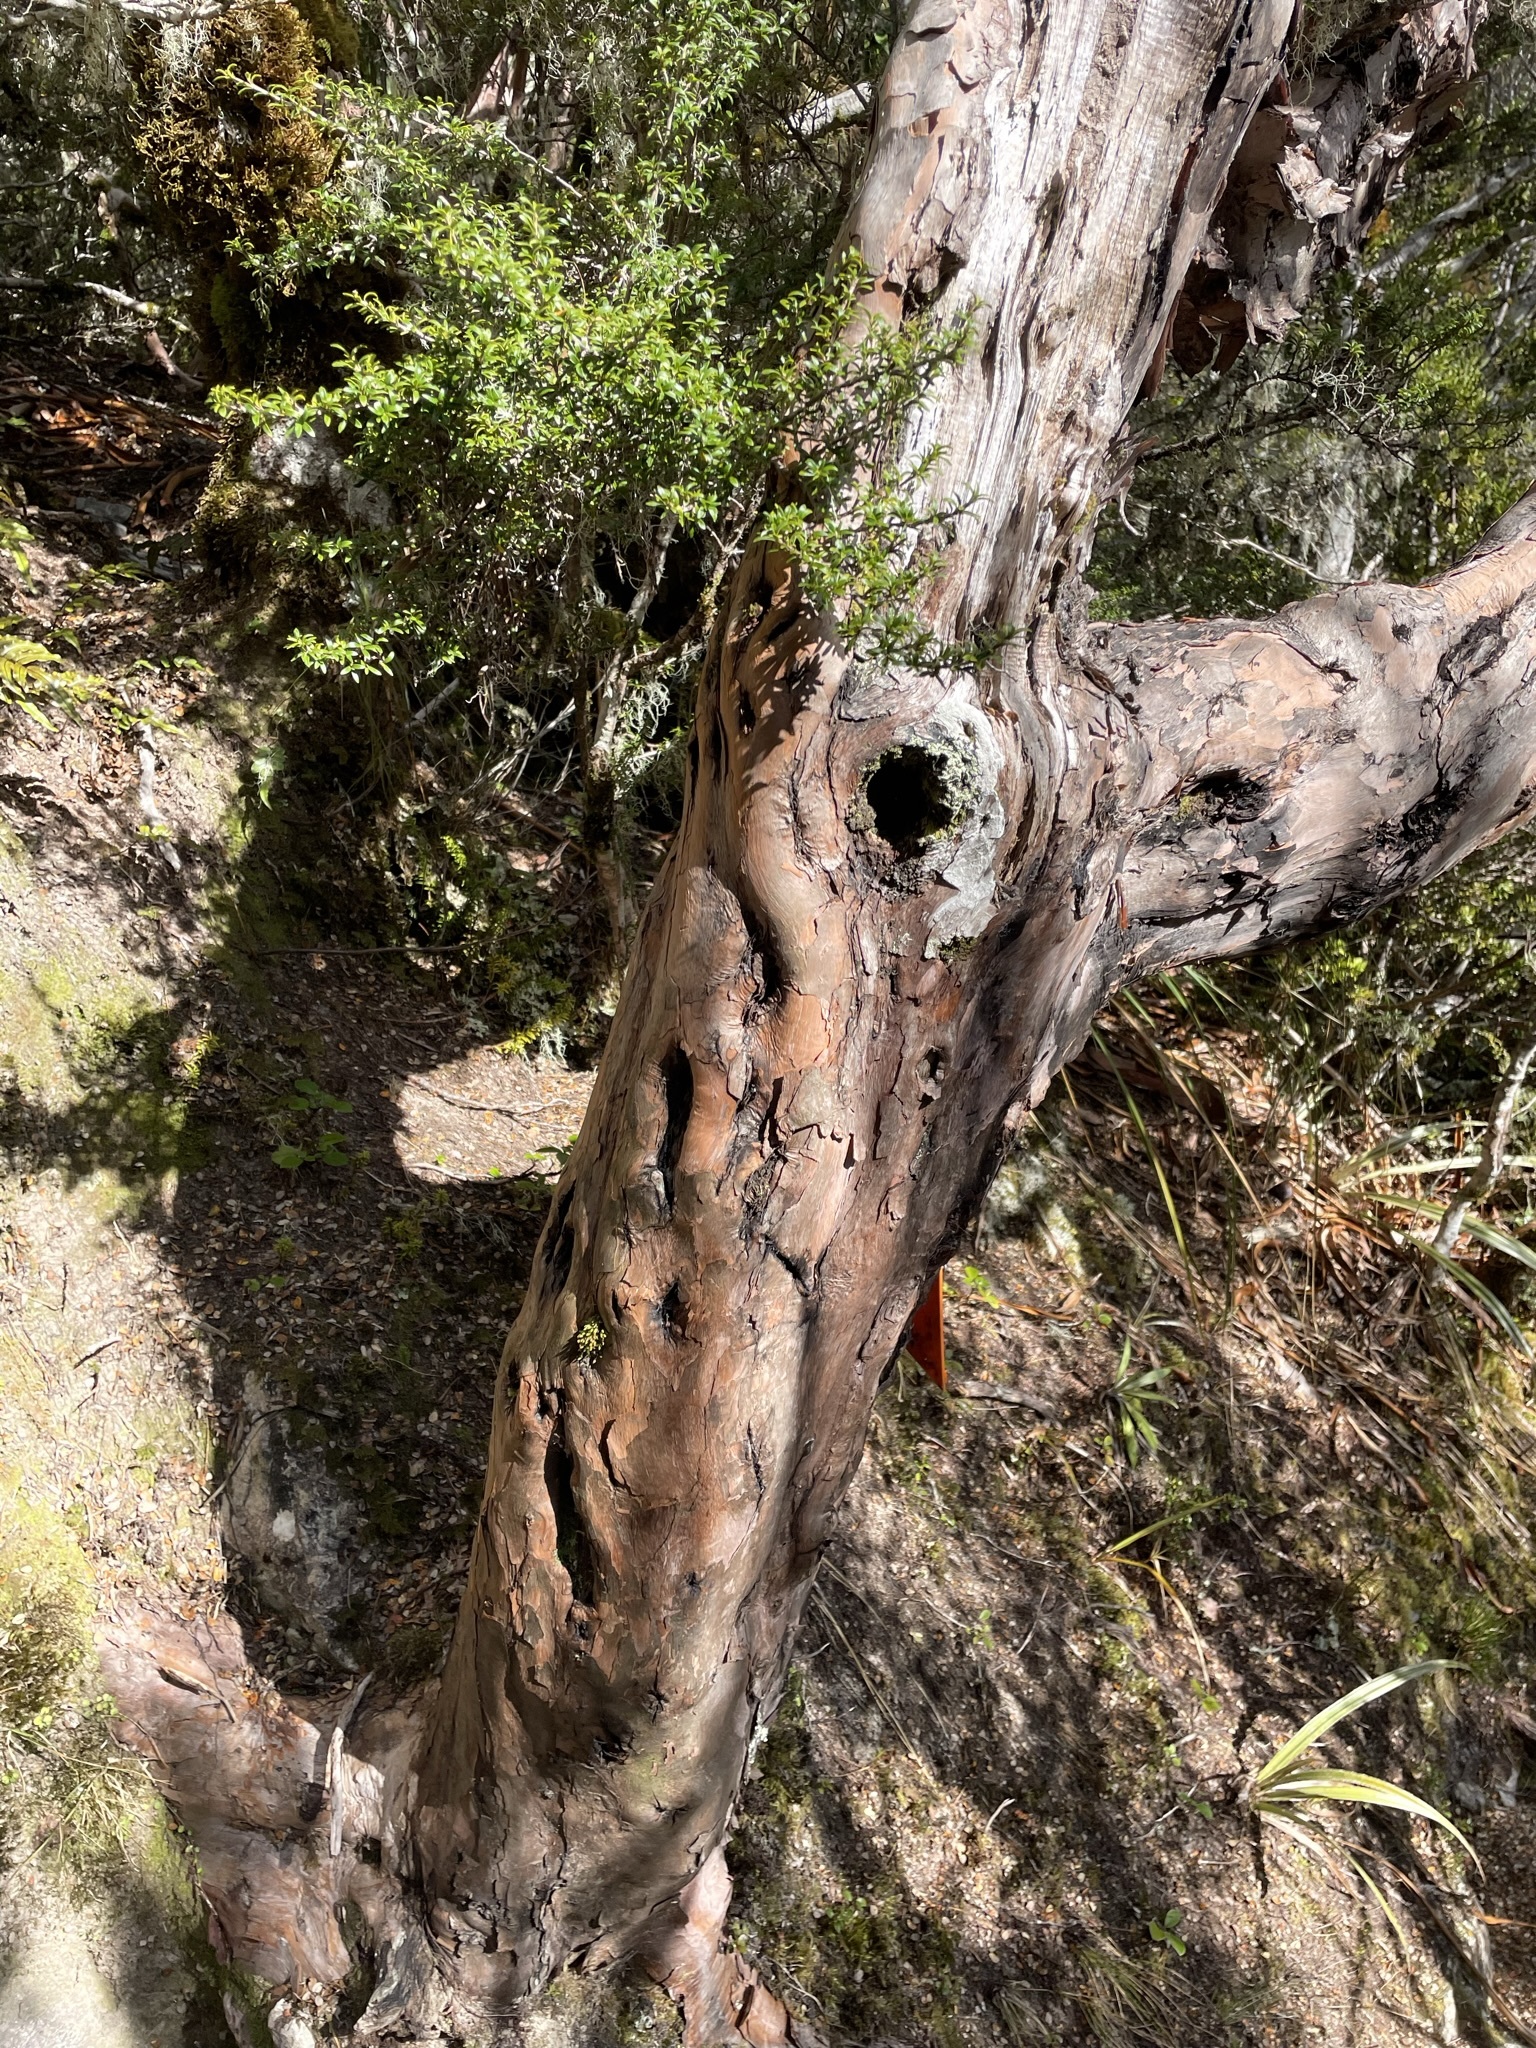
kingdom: Plantae
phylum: Tracheophyta
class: Magnoliopsida
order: Ericales
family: Ericaceae
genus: Dracophyllum
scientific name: Dracophyllum traversii
